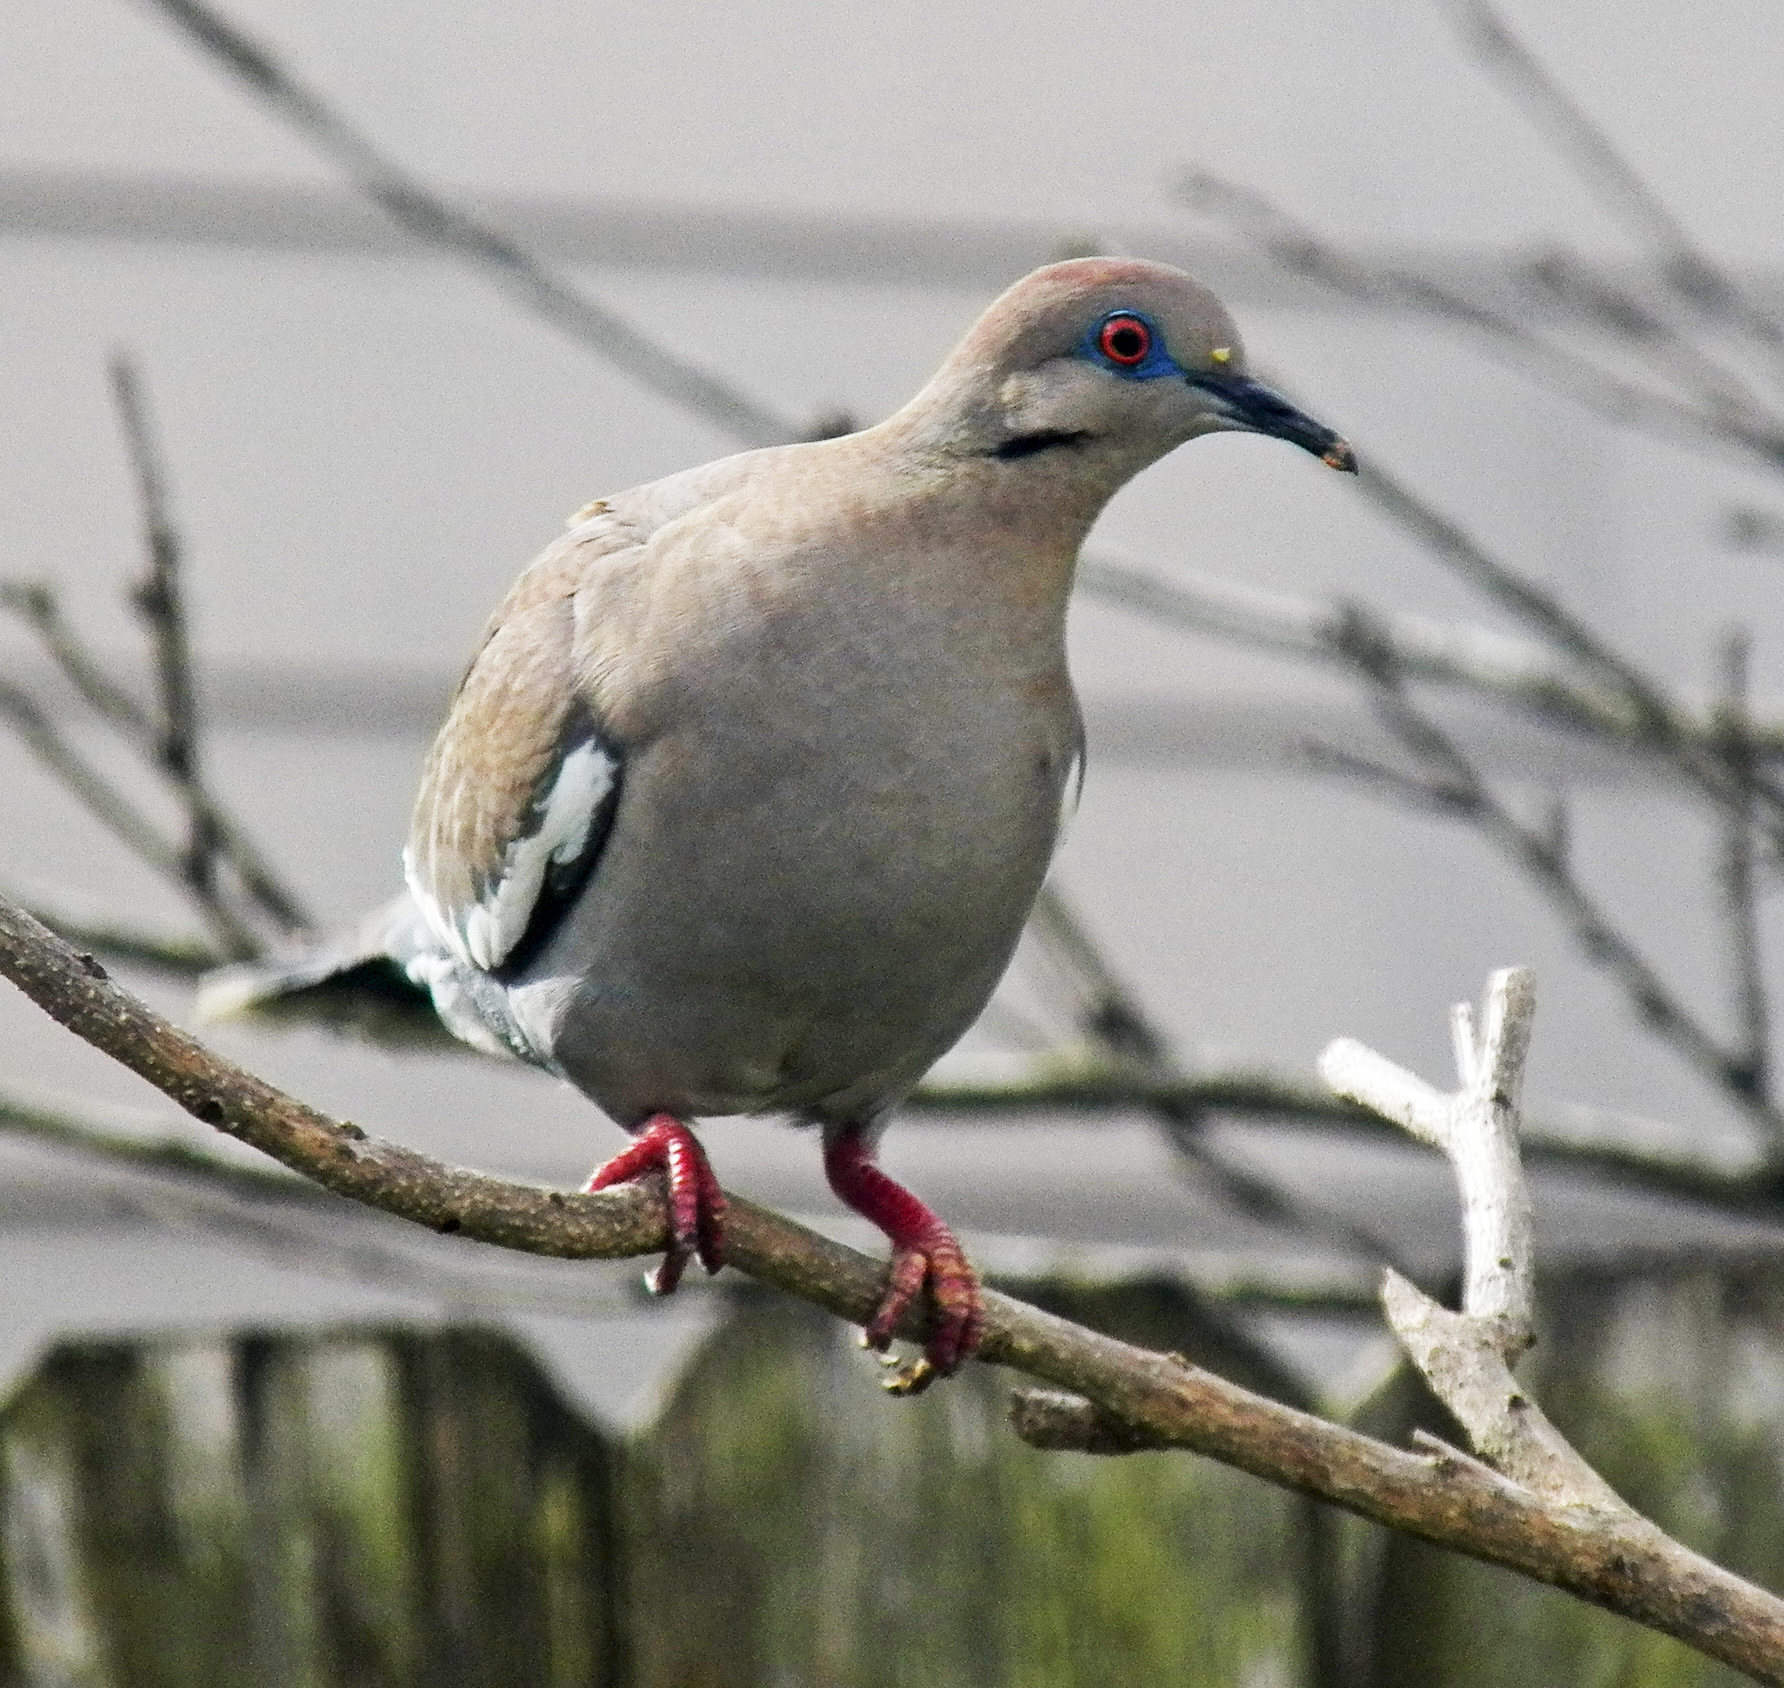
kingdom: Animalia
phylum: Chordata
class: Aves
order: Columbiformes
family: Columbidae
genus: Zenaida
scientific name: Zenaida asiatica
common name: White-winged dove
